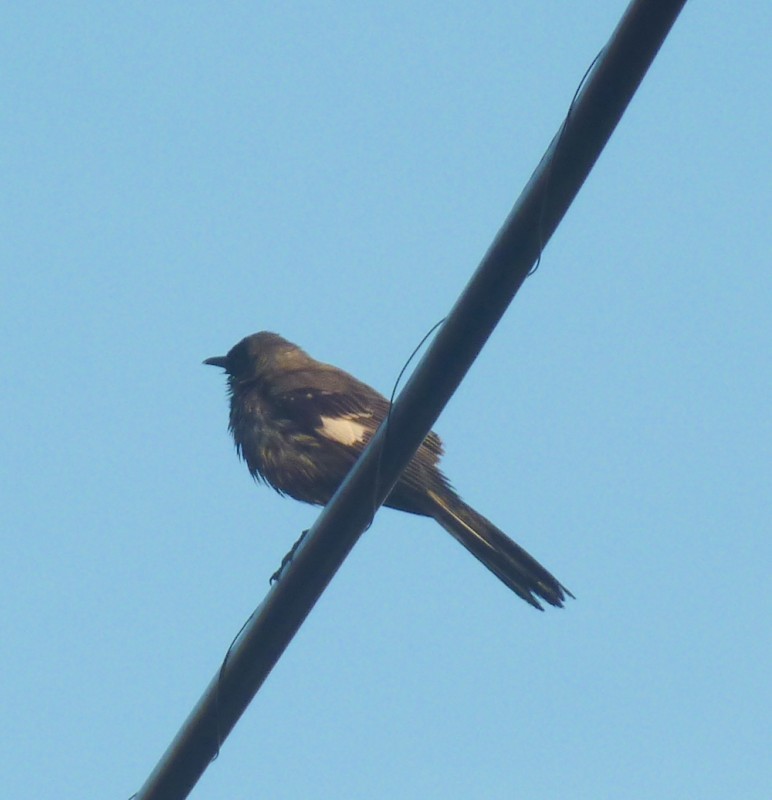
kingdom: Animalia
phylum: Chordata
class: Aves
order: Passeriformes
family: Mimidae
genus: Mimus
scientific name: Mimus polyglottos
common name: Northern mockingbird
